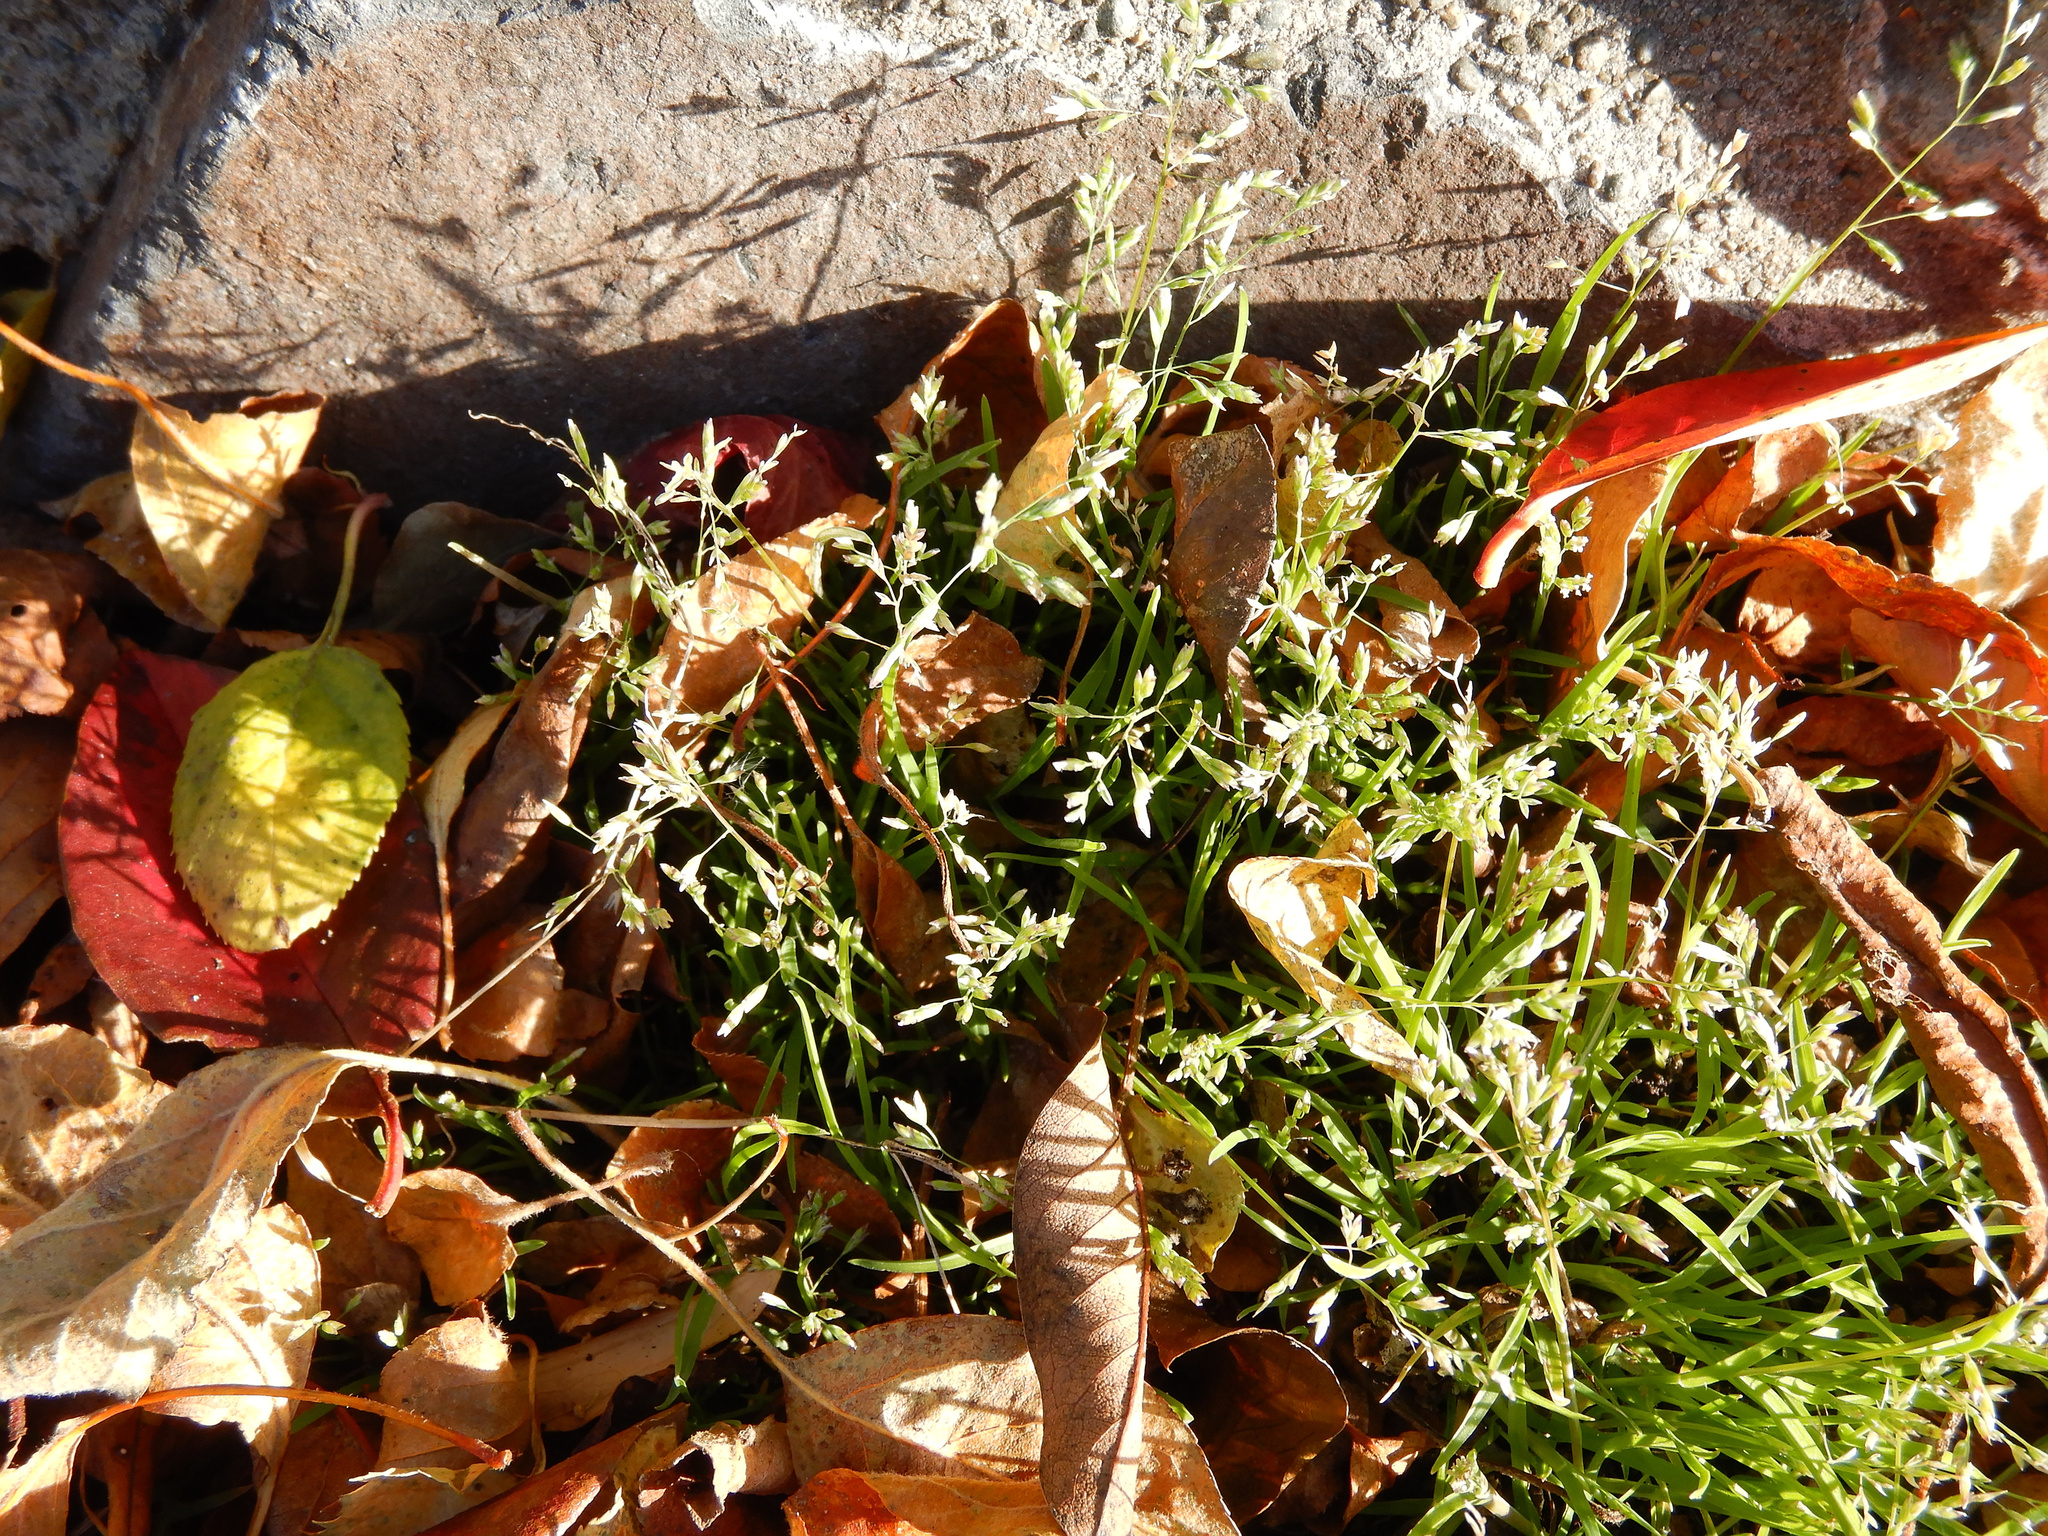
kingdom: Plantae
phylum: Tracheophyta
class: Liliopsida
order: Poales
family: Poaceae
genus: Poa
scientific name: Poa annua
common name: Annual bluegrass
